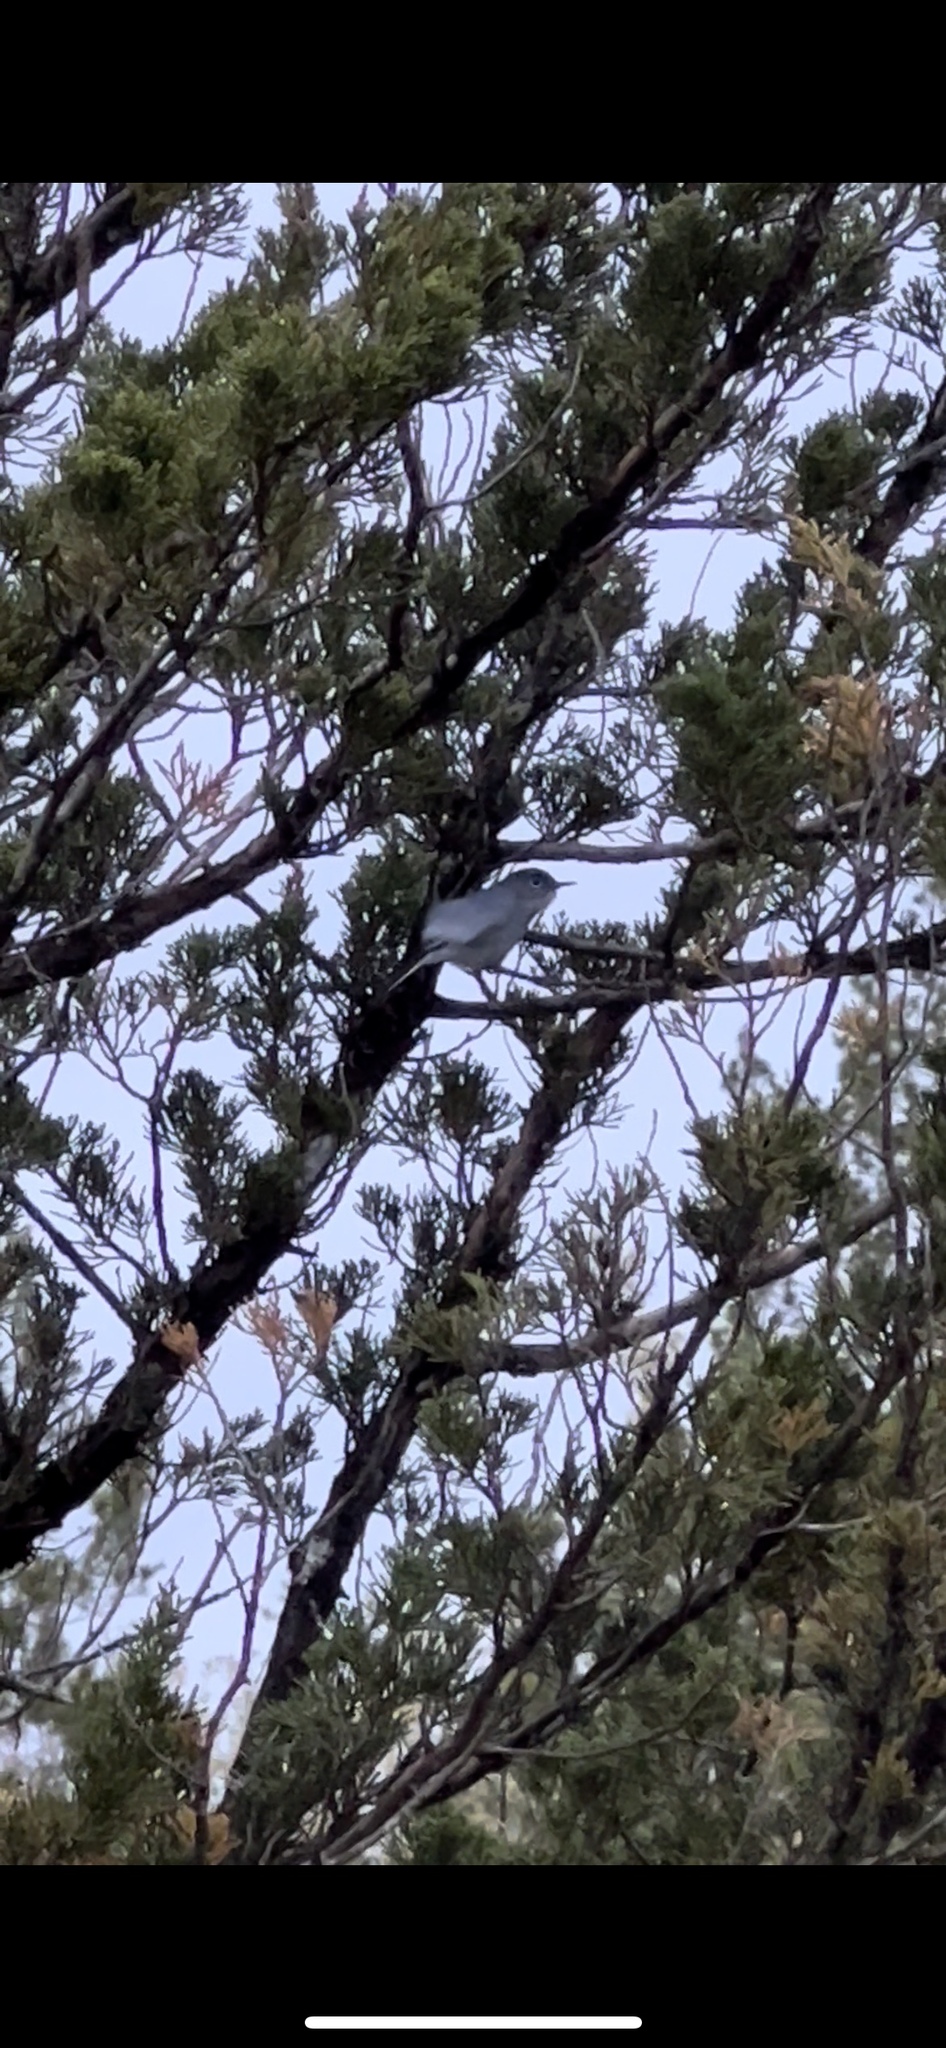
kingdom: Animalia
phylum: Chordata
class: Aves
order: Passeriformes
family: Polioptilidae
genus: Polioptila
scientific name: Polioptila caerulea
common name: Blue-gray gnatcatcher
